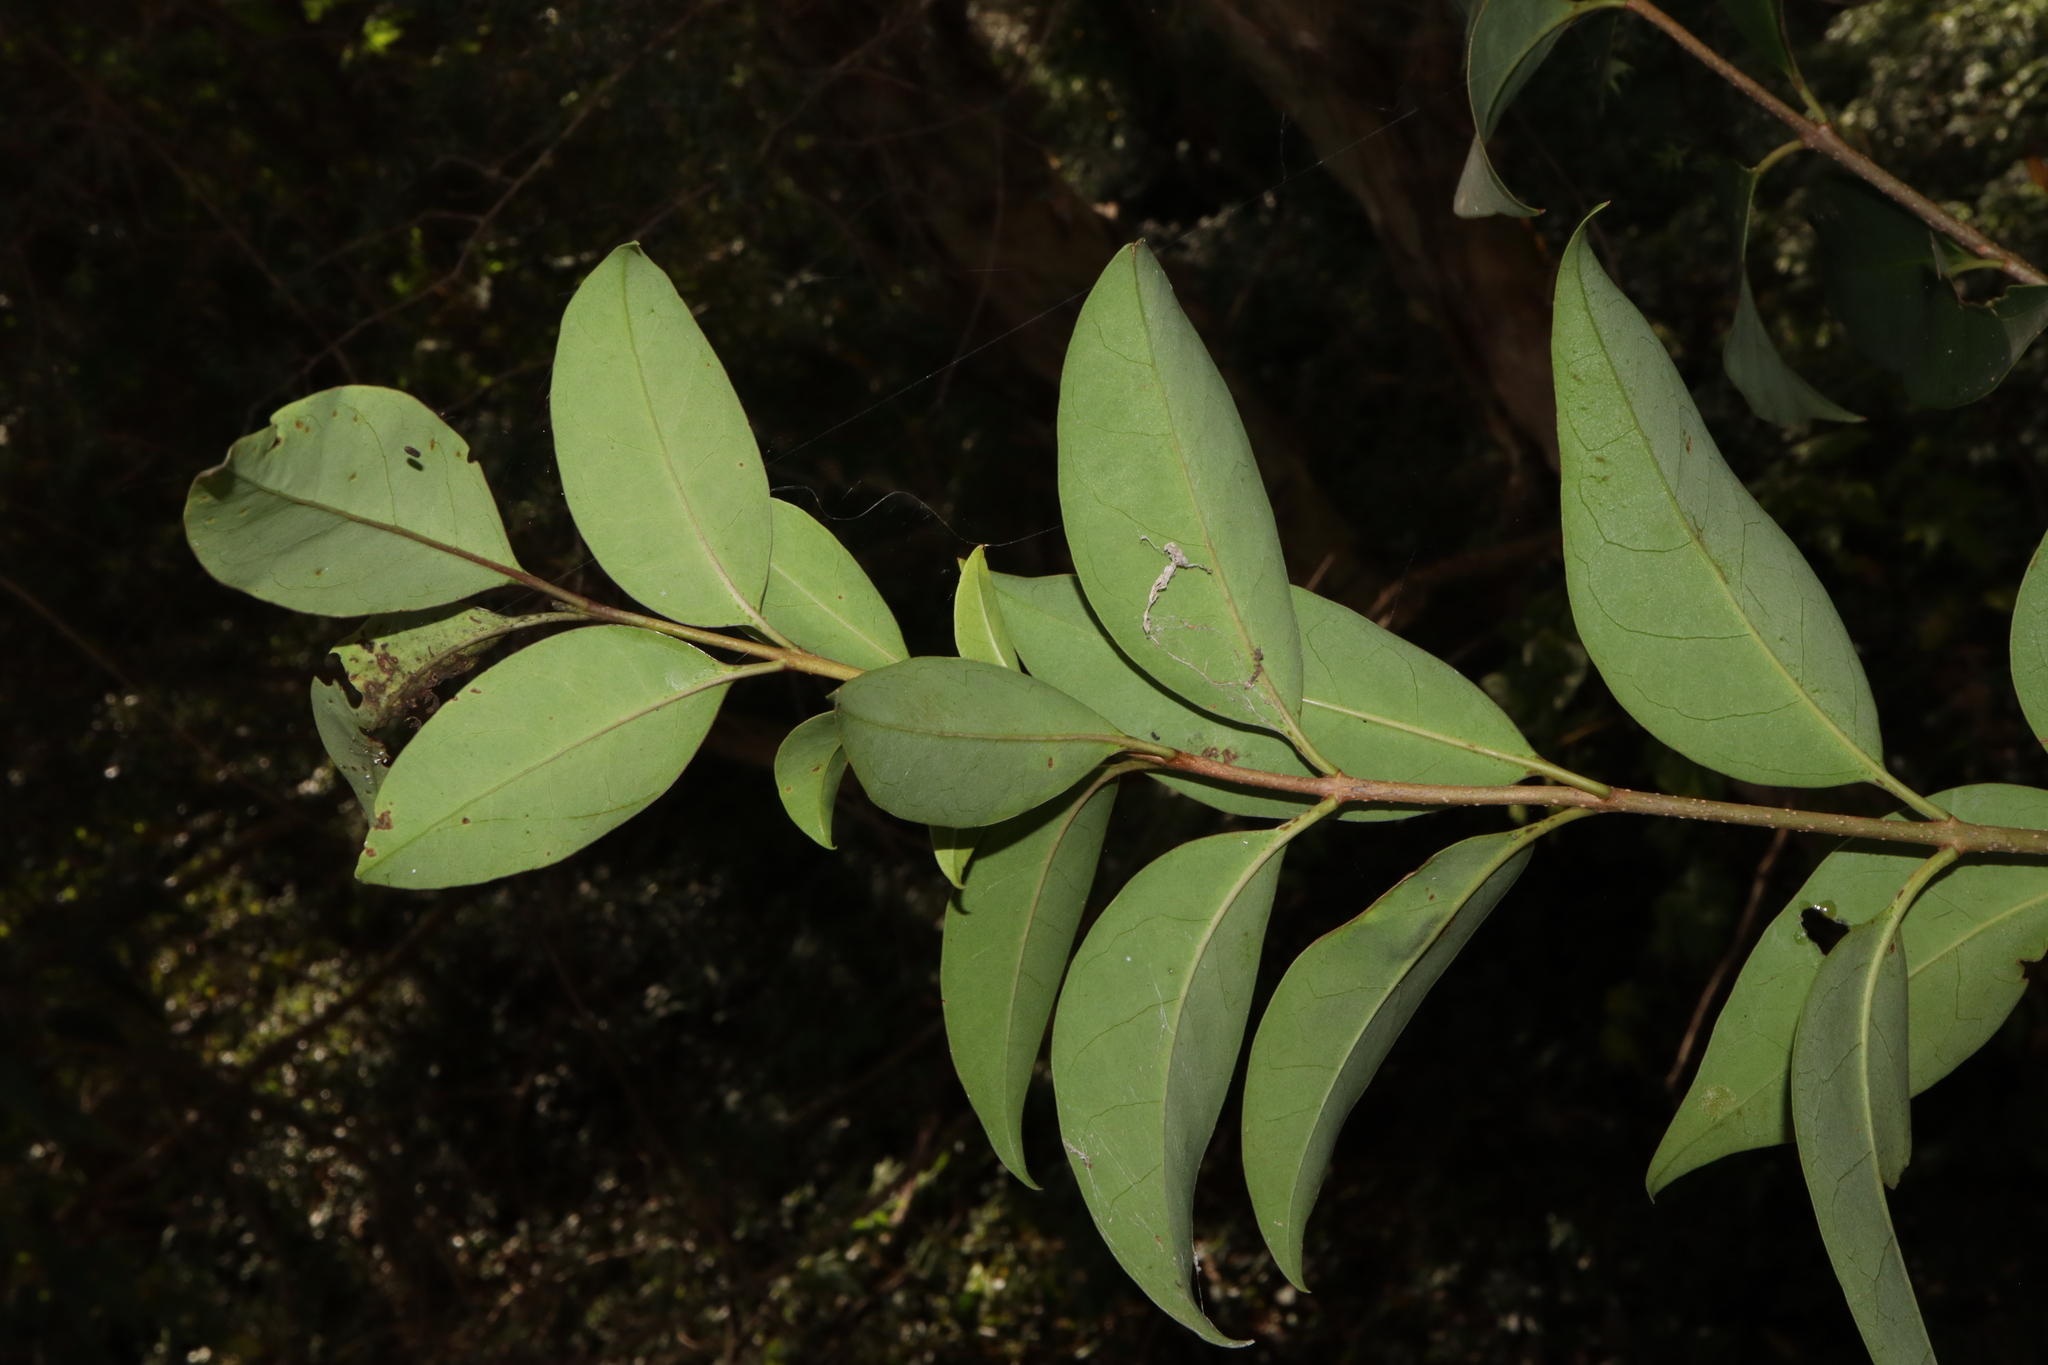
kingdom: Plantae
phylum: Tracheophyta
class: Magnoliopsida
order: Lamiales
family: Oleaceae
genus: Ligustrum
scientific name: Ligustrum lucidum
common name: Glossy privet
